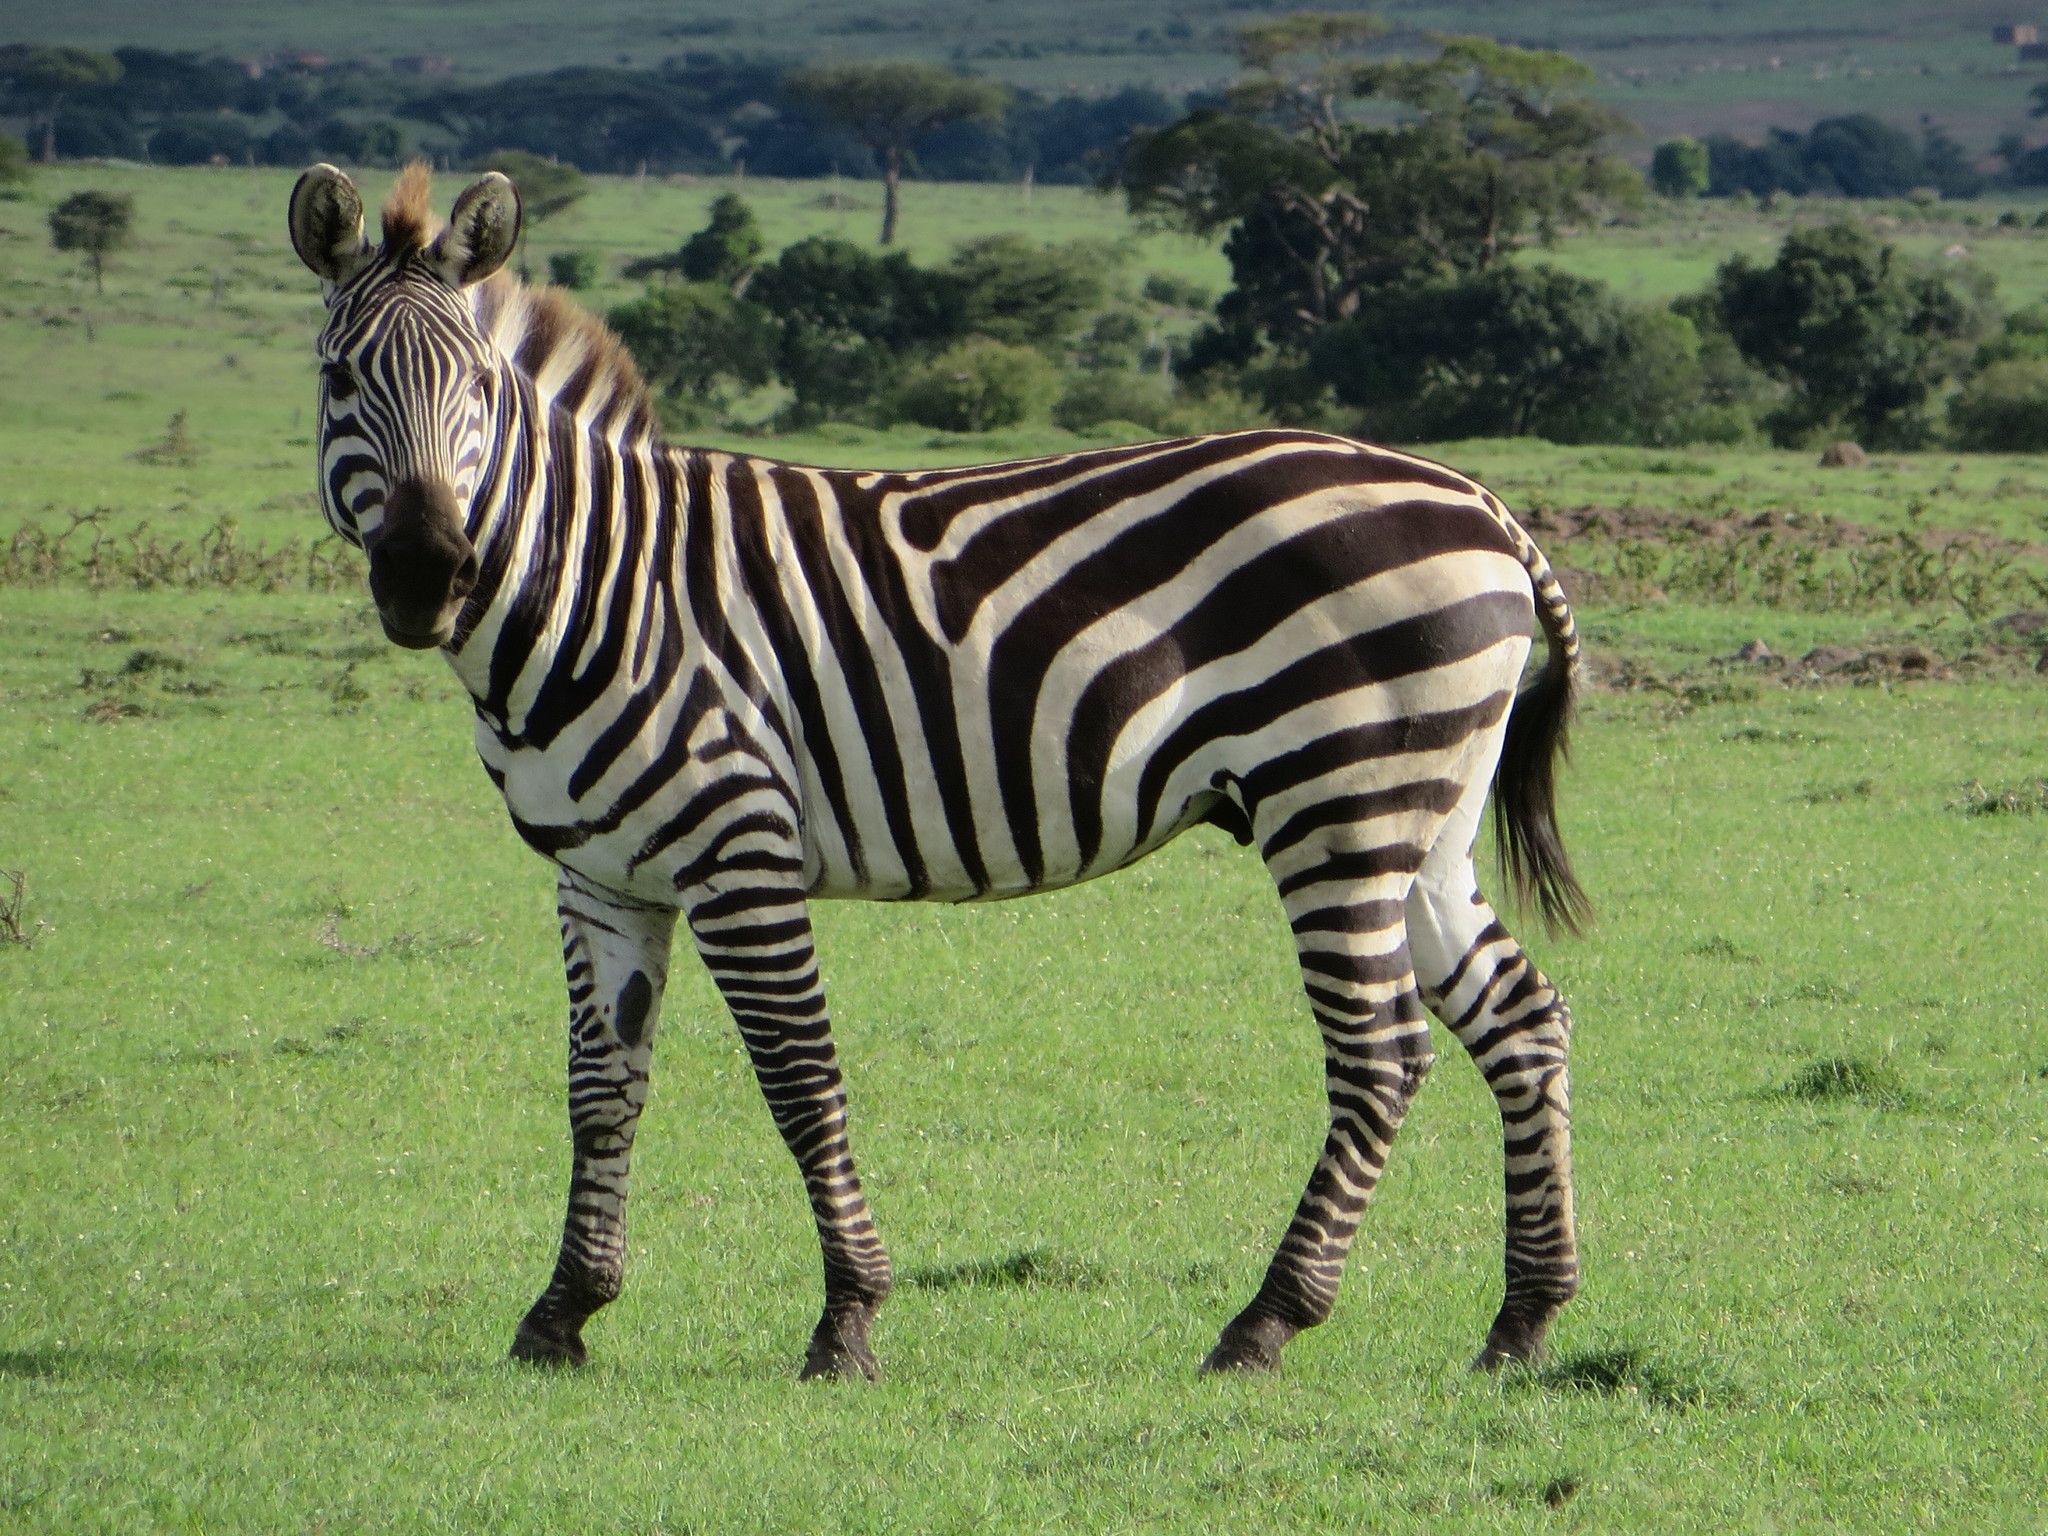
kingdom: Animalia
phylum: Chordata
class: Mammalia
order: Perissodactyla
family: Equidae
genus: Equus
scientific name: Equus quagga
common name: Plains zebra
